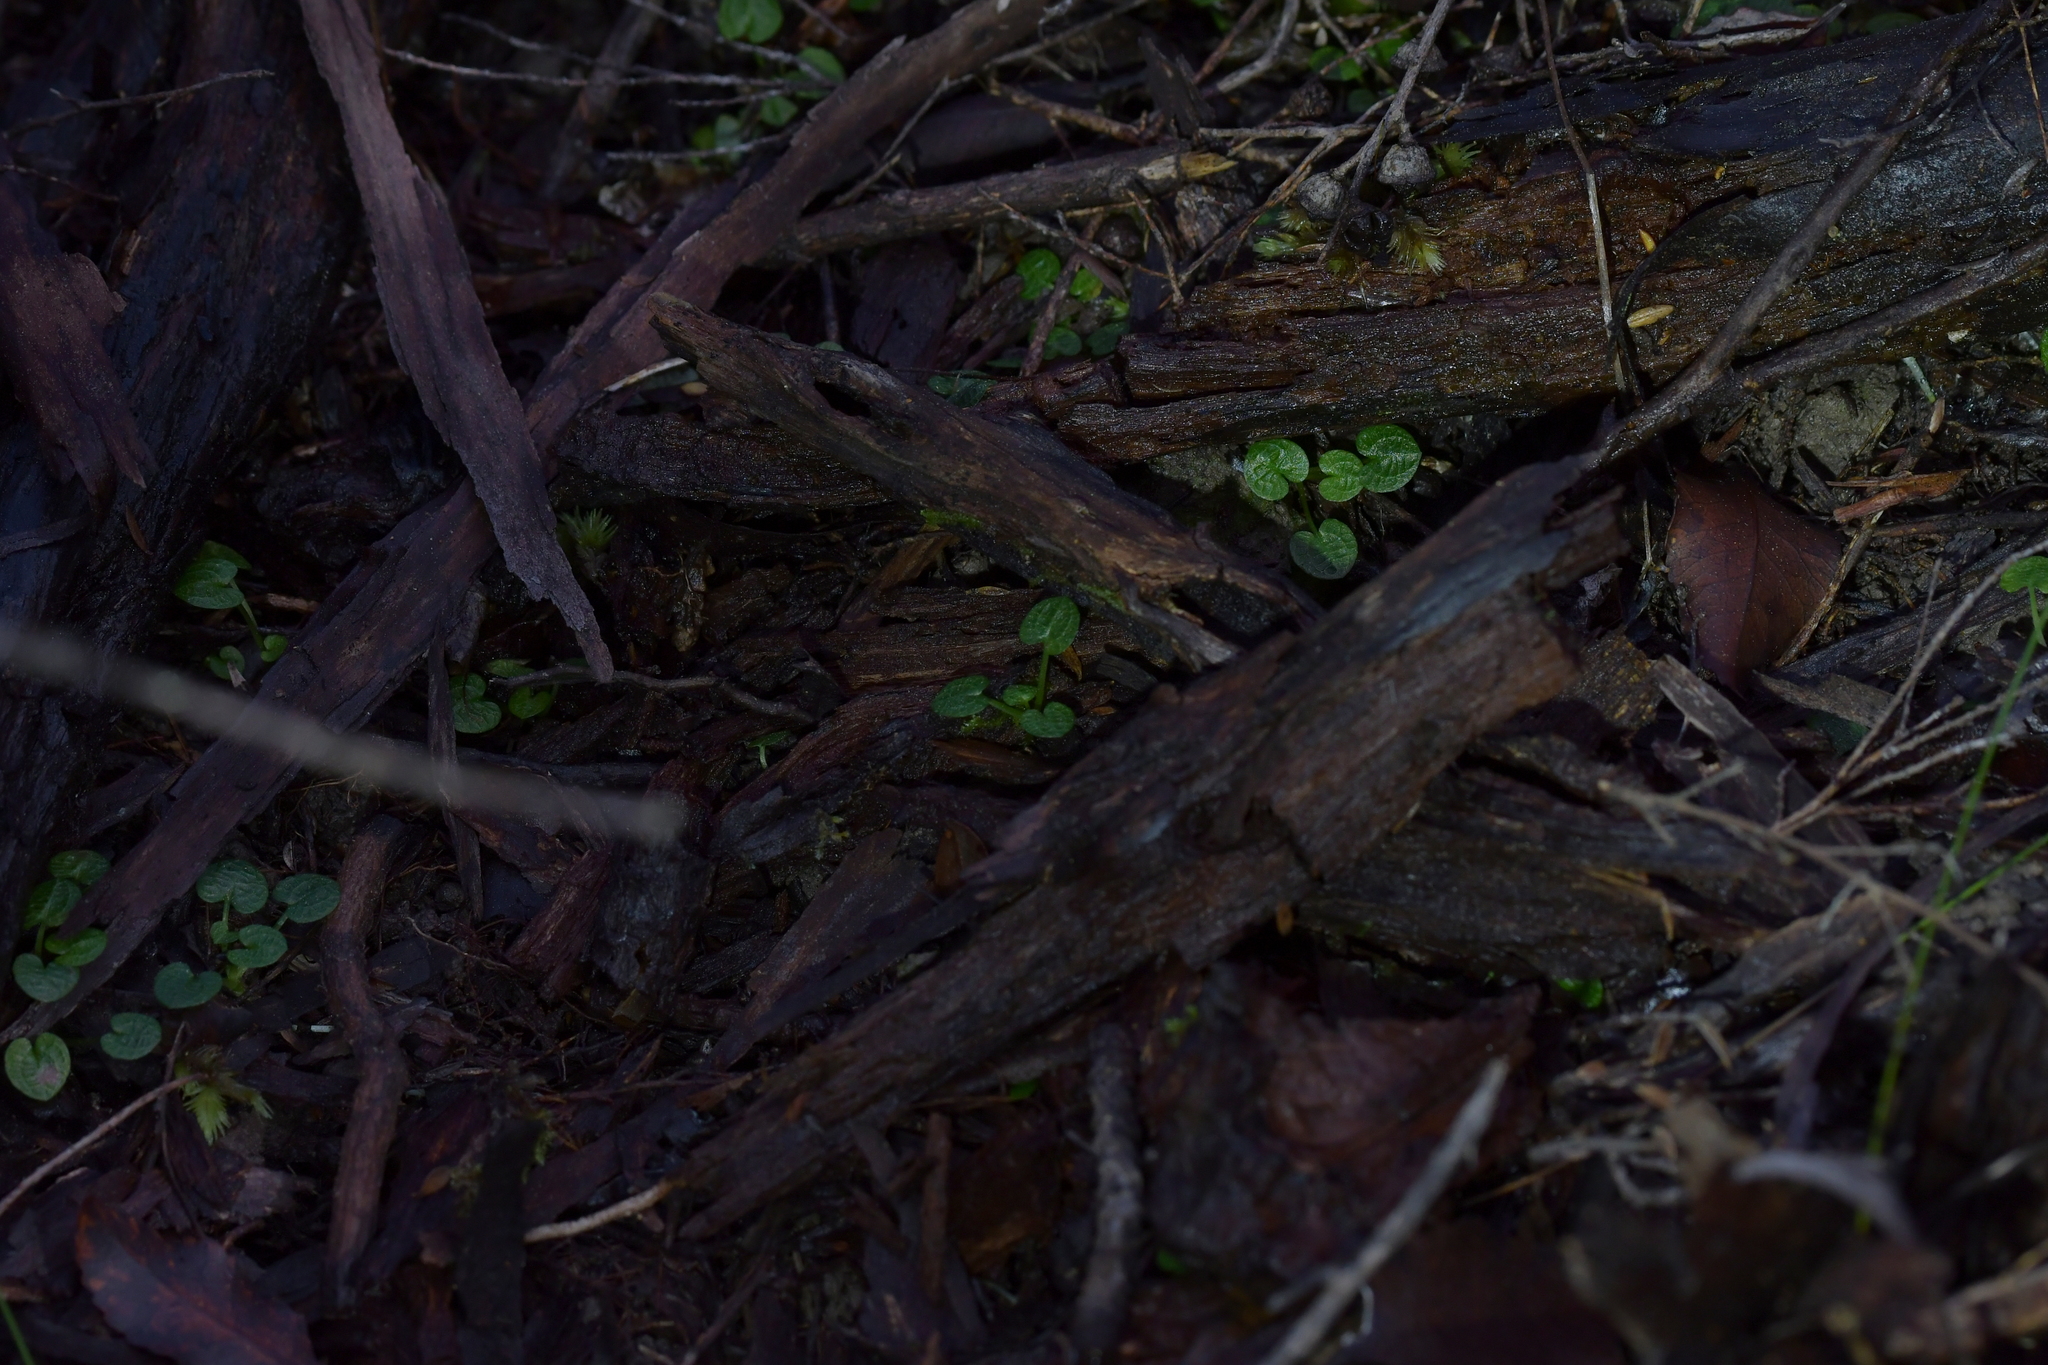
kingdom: Plantae
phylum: Tracheophyta
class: Liliopsida
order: Asparagales
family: Orchidaceae
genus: Pterostylis
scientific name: Pterostylis trullifolia
